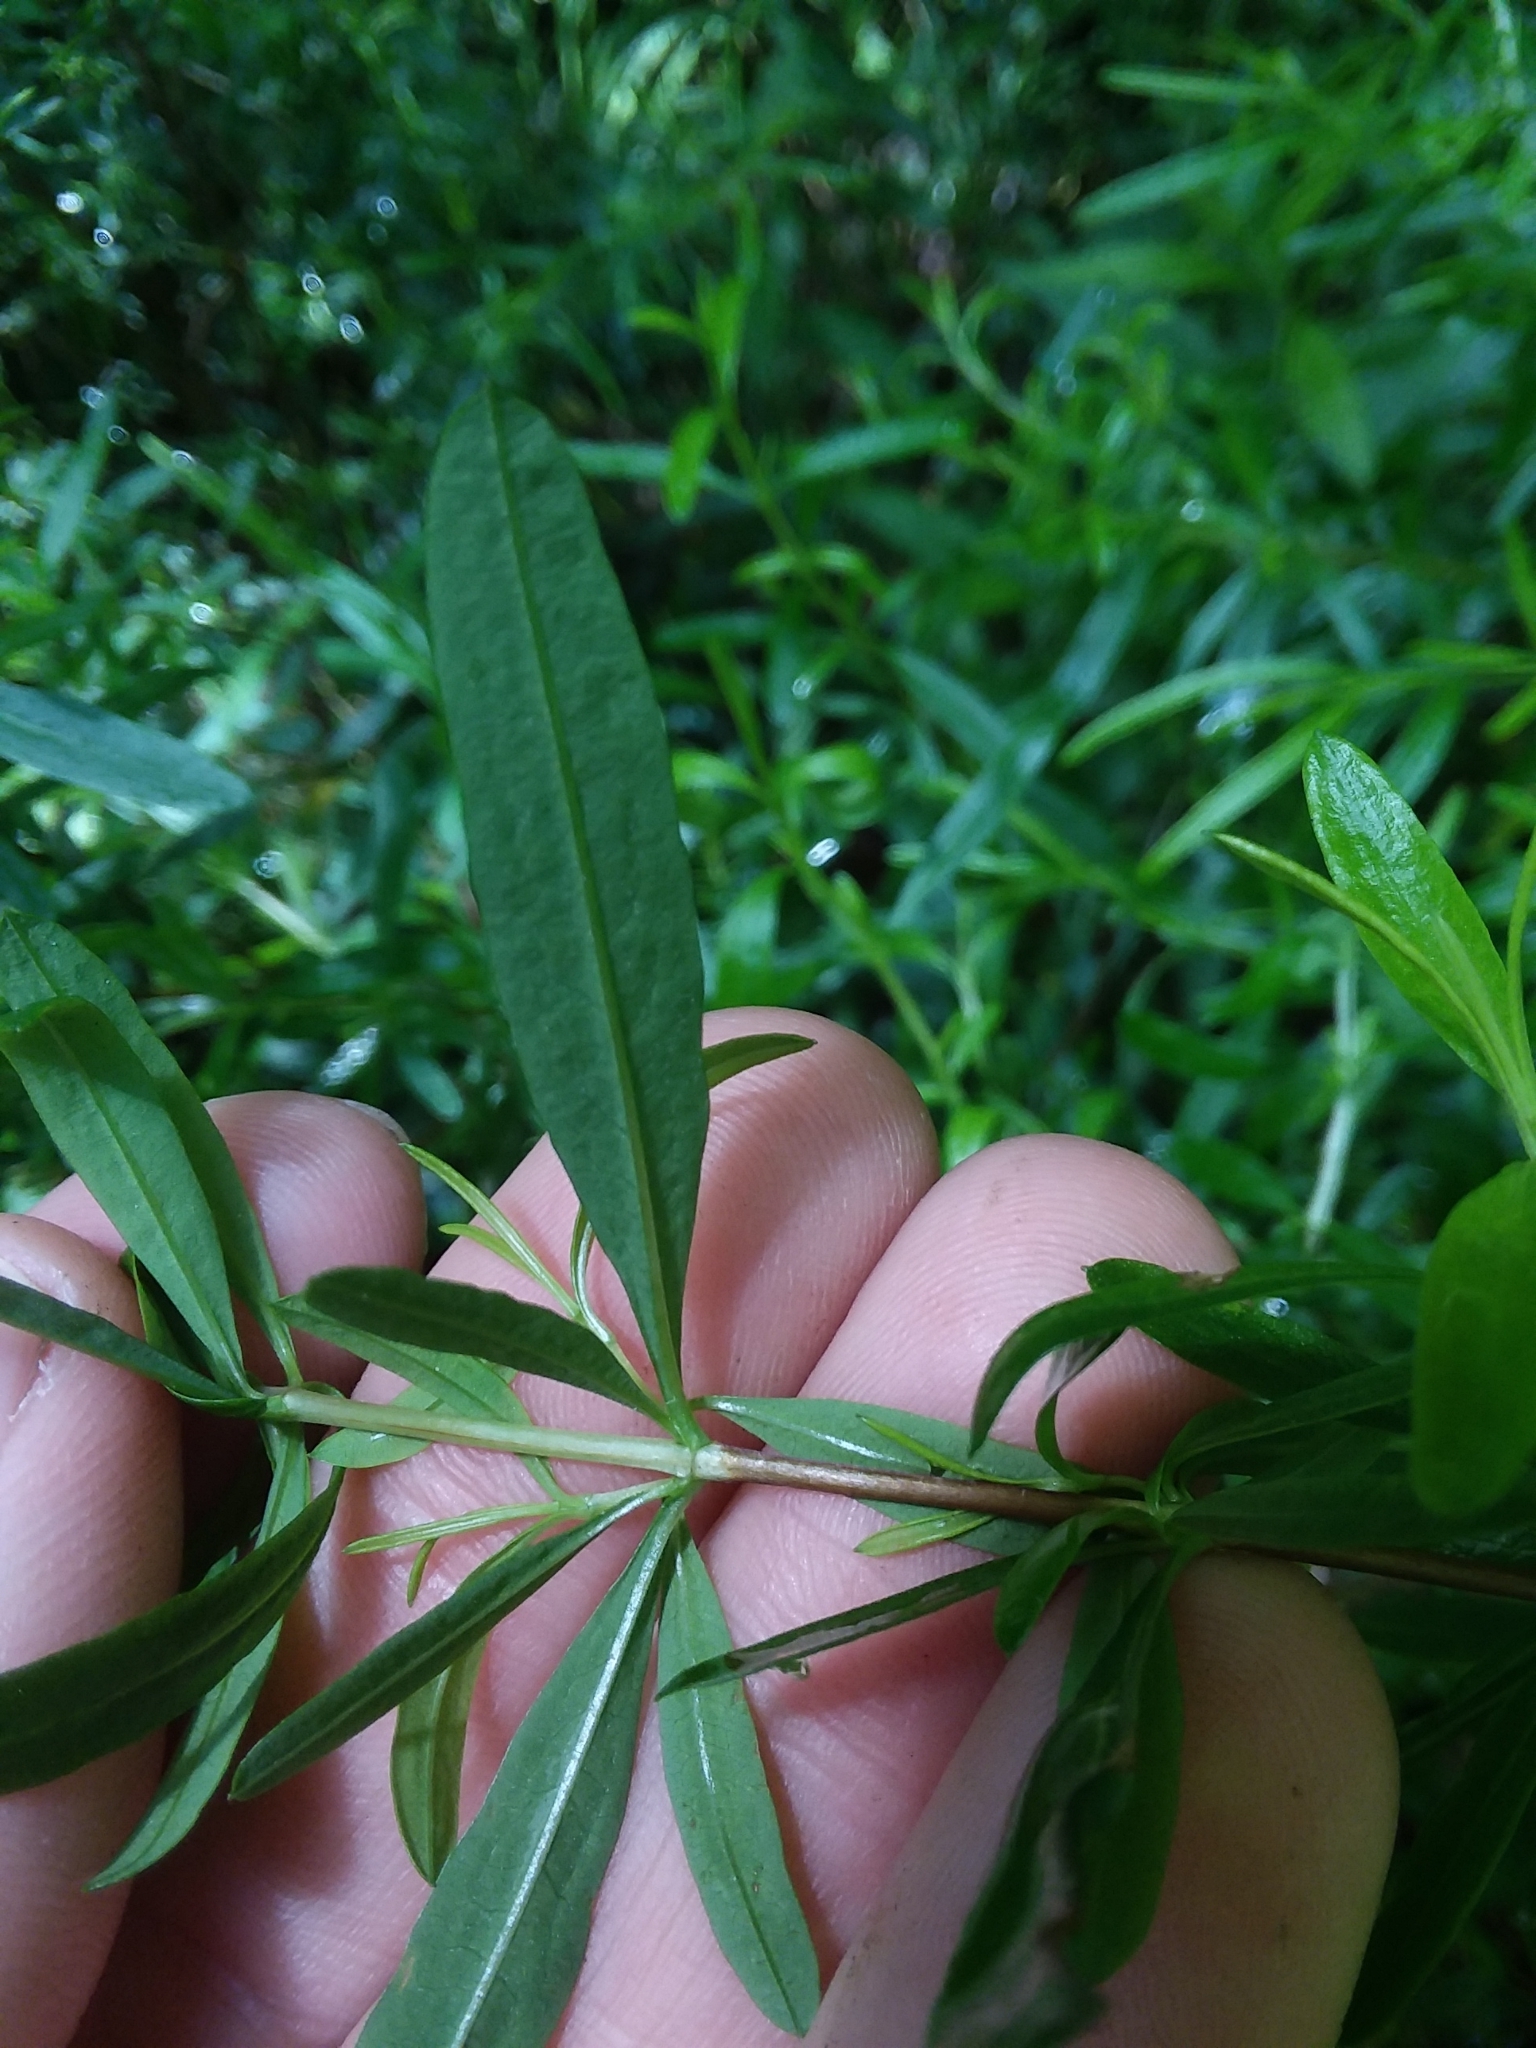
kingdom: Plantae
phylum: Tracheophyta
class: Magnoliopsida
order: Malpighiales
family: Hypericaceae
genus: Hypericum
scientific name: Hypericum galioides
